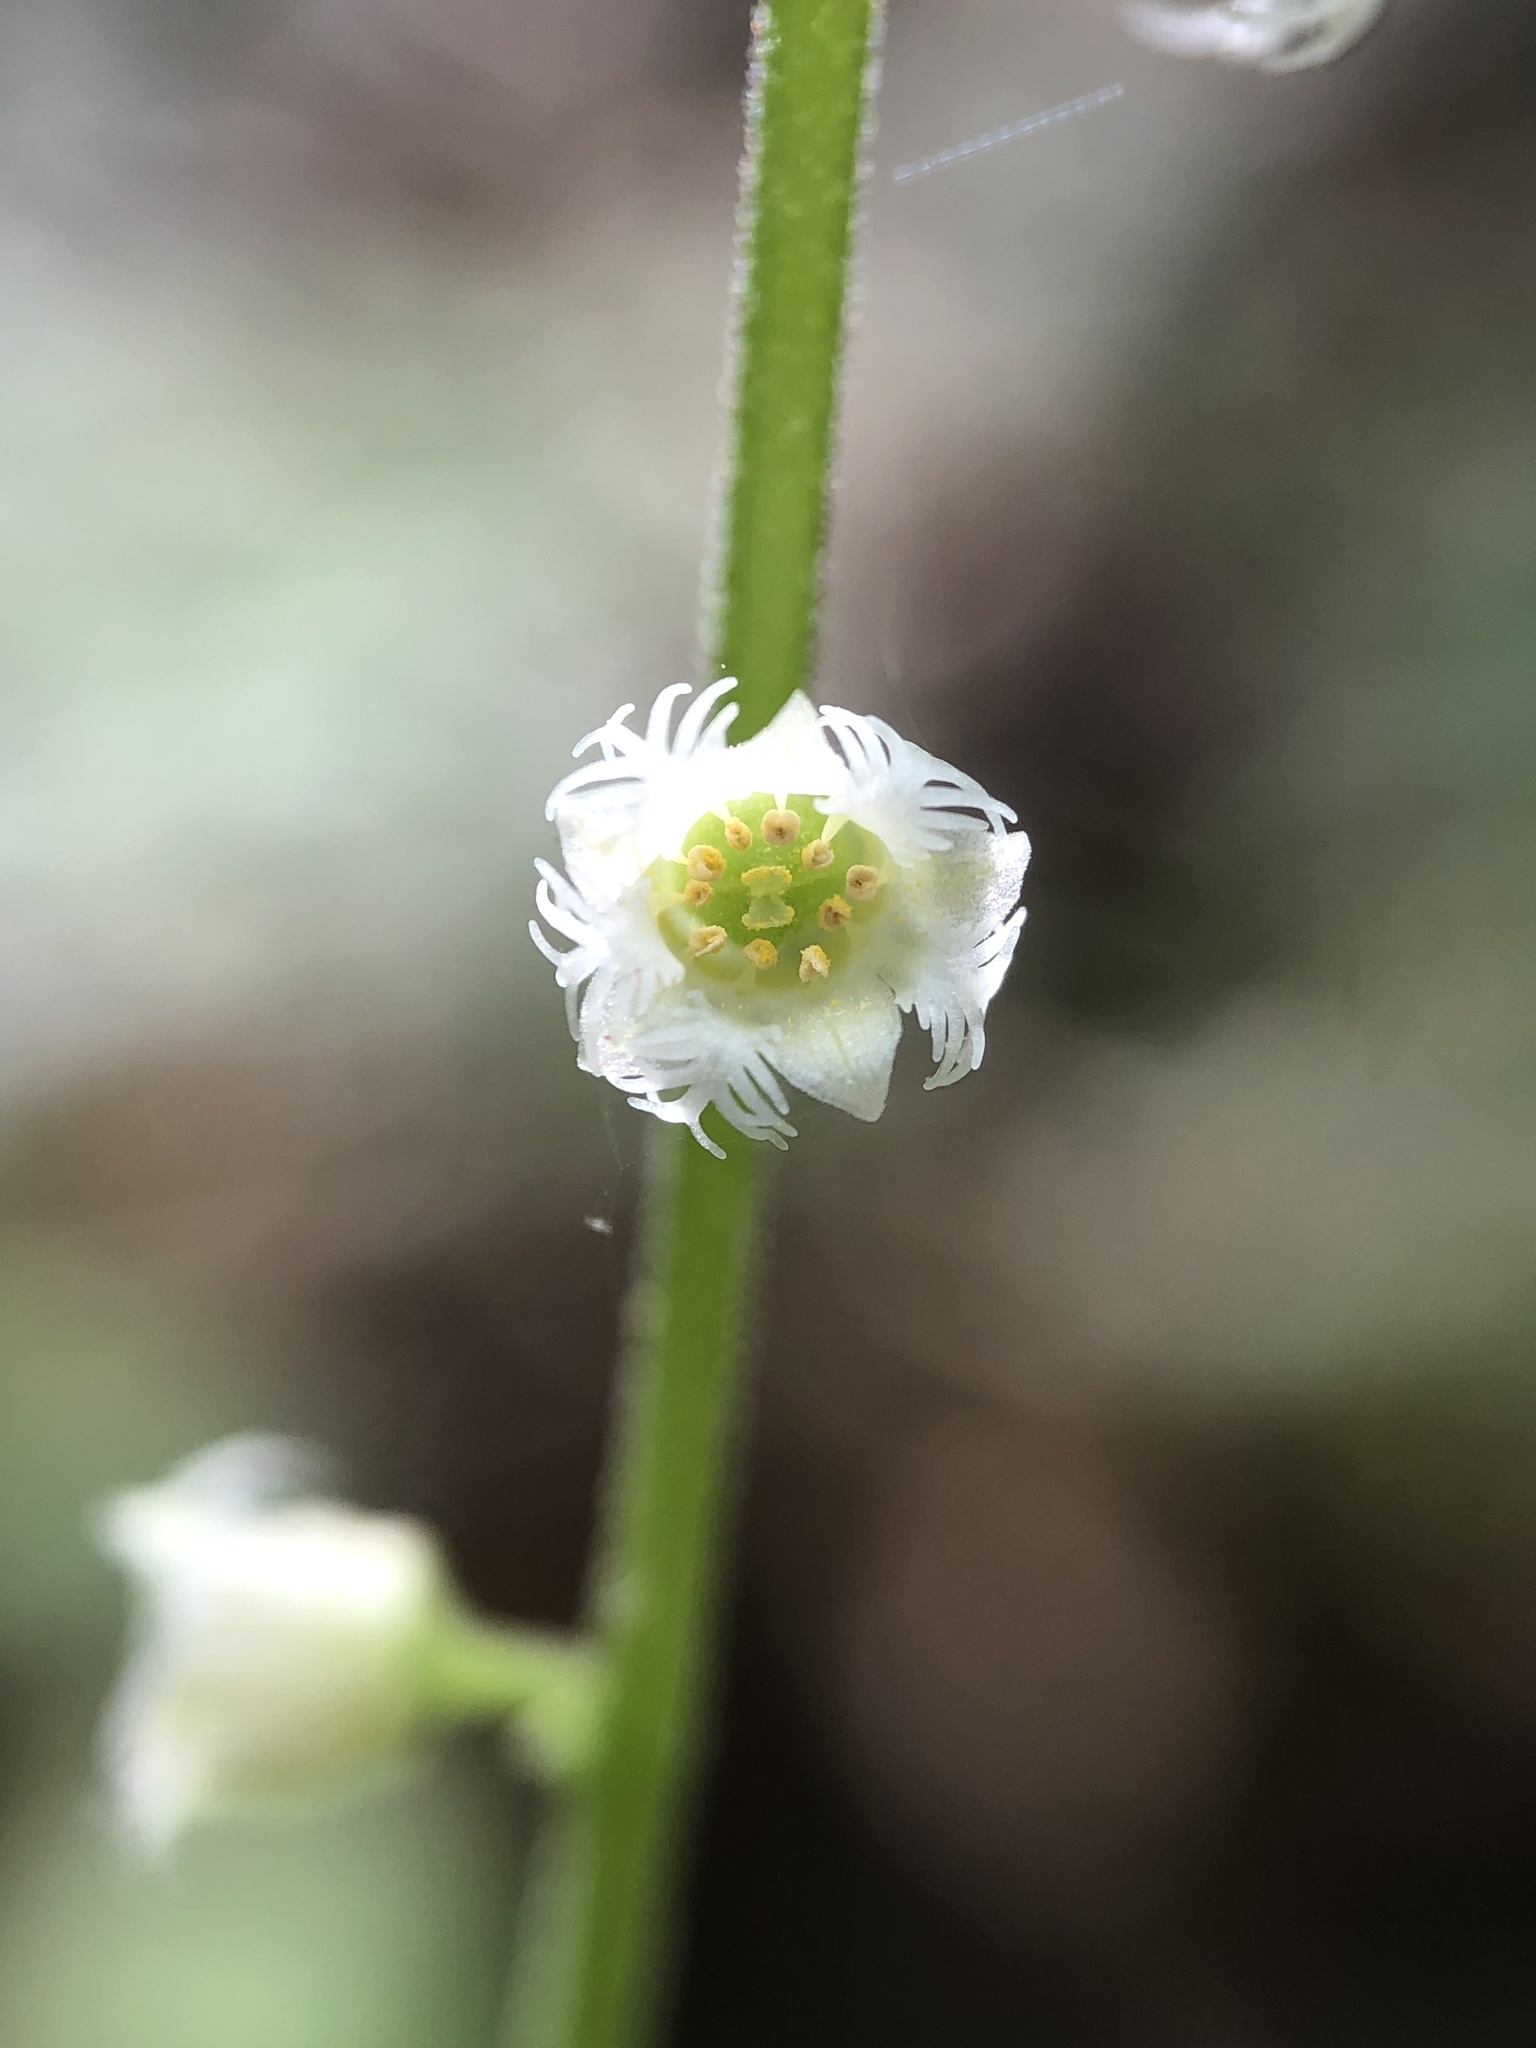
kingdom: Plantae
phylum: Tracheophyta
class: Magnoliopsida
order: Saxifragales
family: Saxifragaceae
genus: Mitella
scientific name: Mitella diphylla
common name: Coolwort
